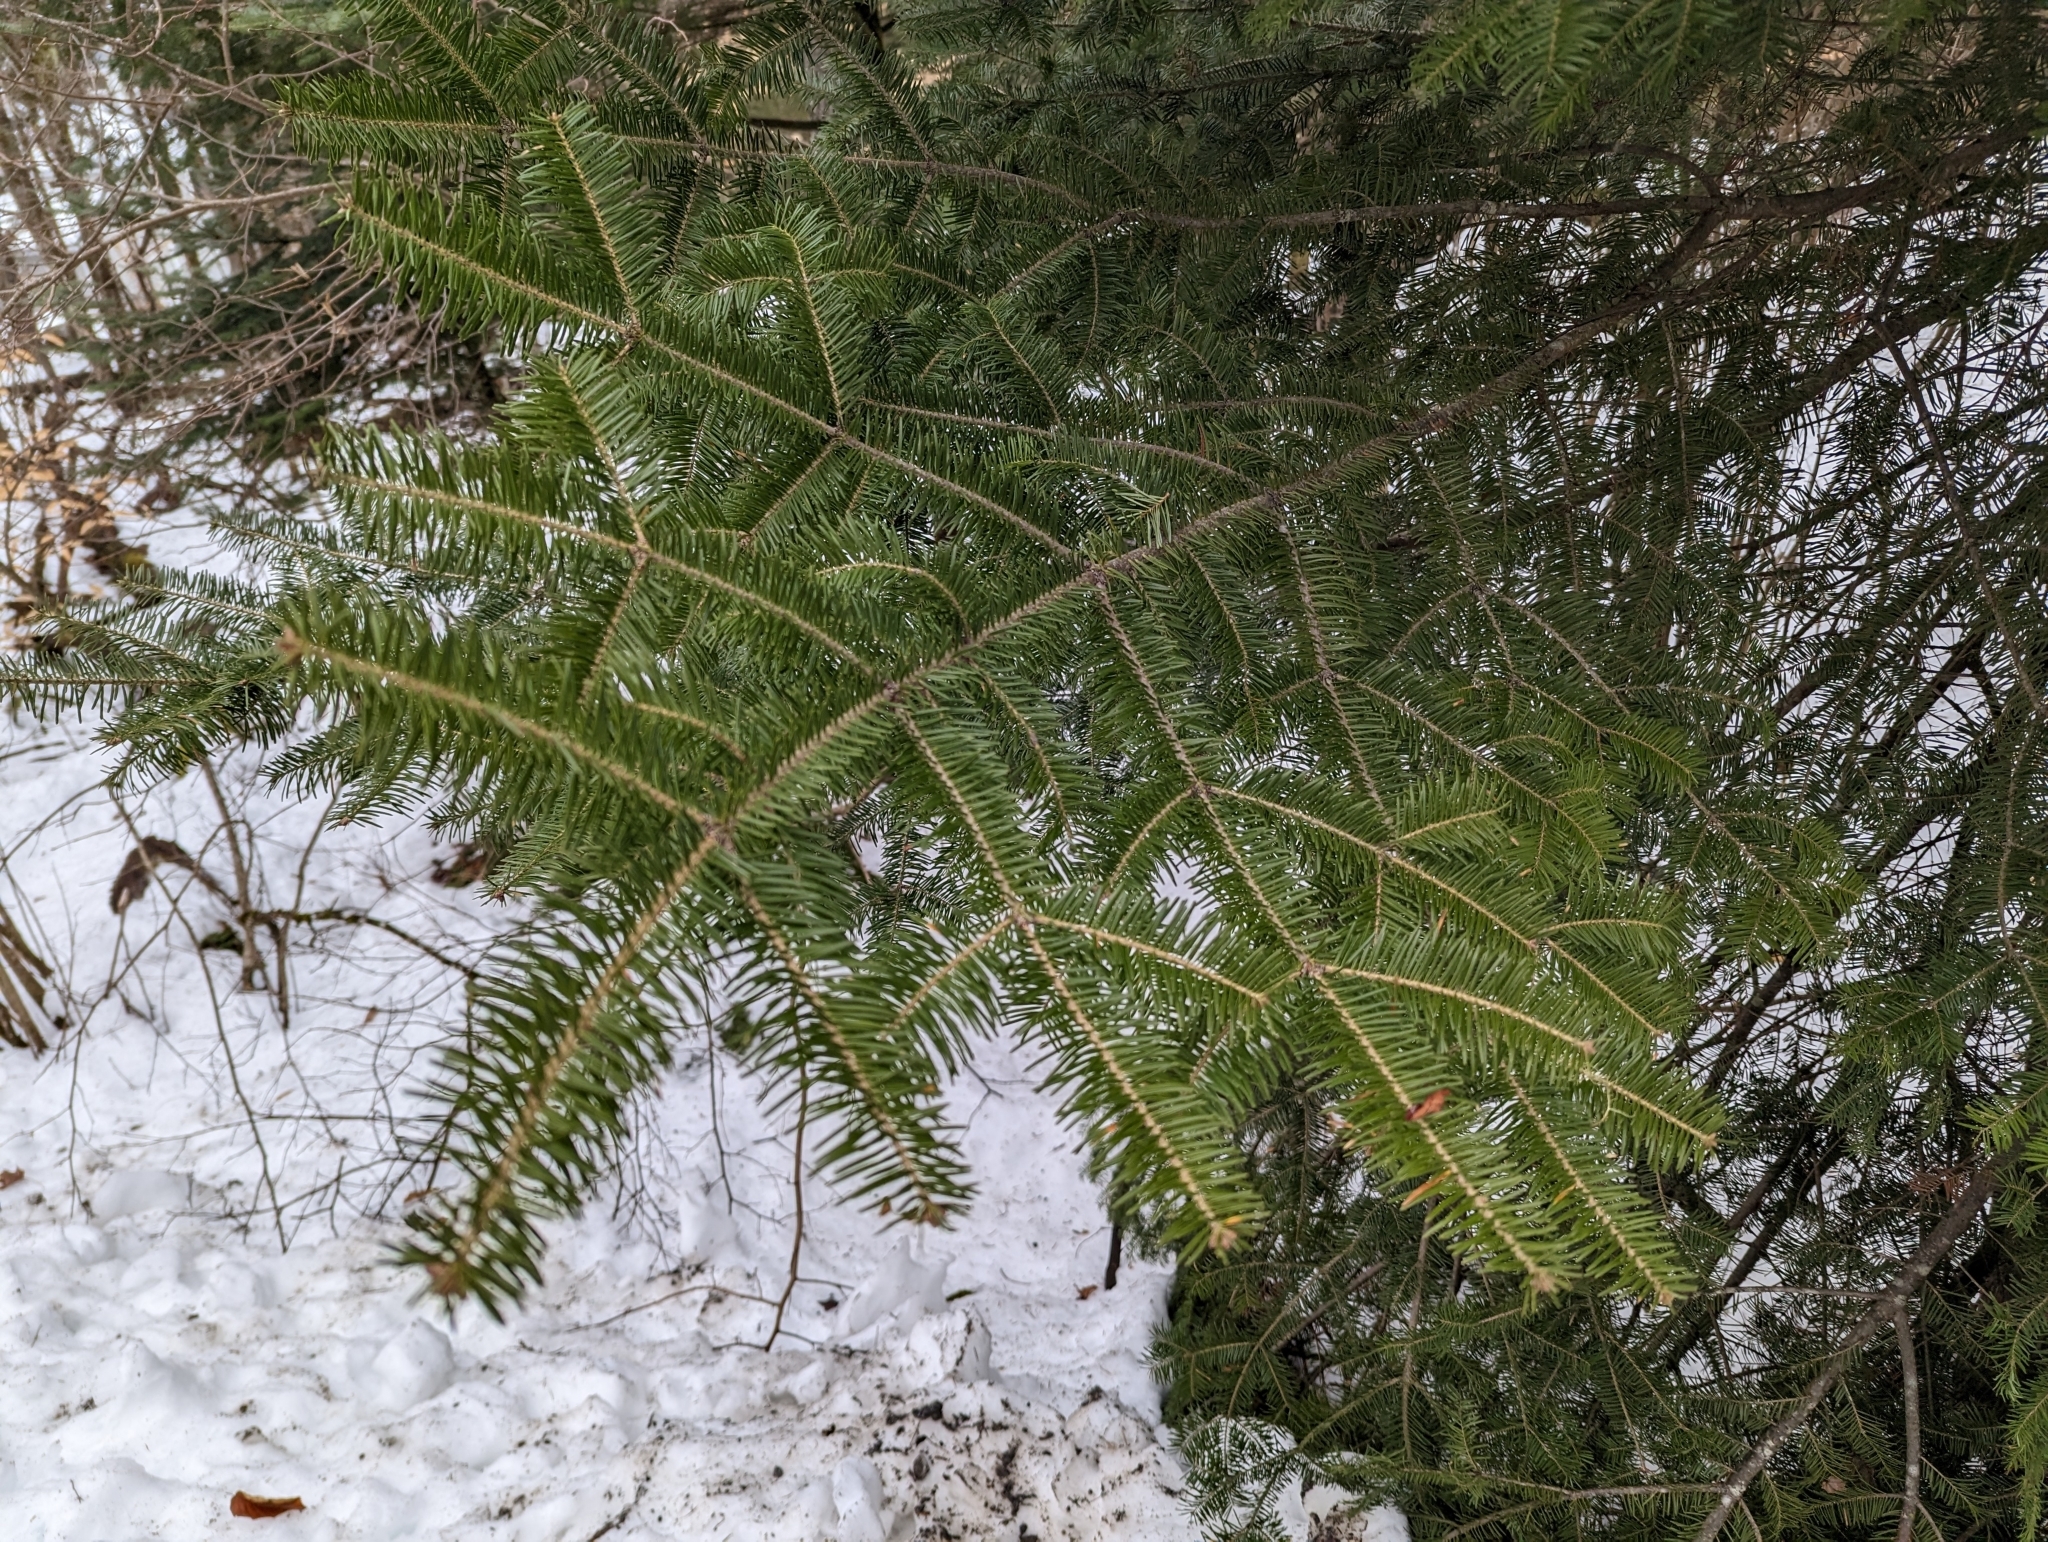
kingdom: Plantae
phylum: Tracheophyta
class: Pinopsida
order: Pinales
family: Pinaceae
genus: Abies
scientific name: Abies balsamea
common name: Balsam fir
